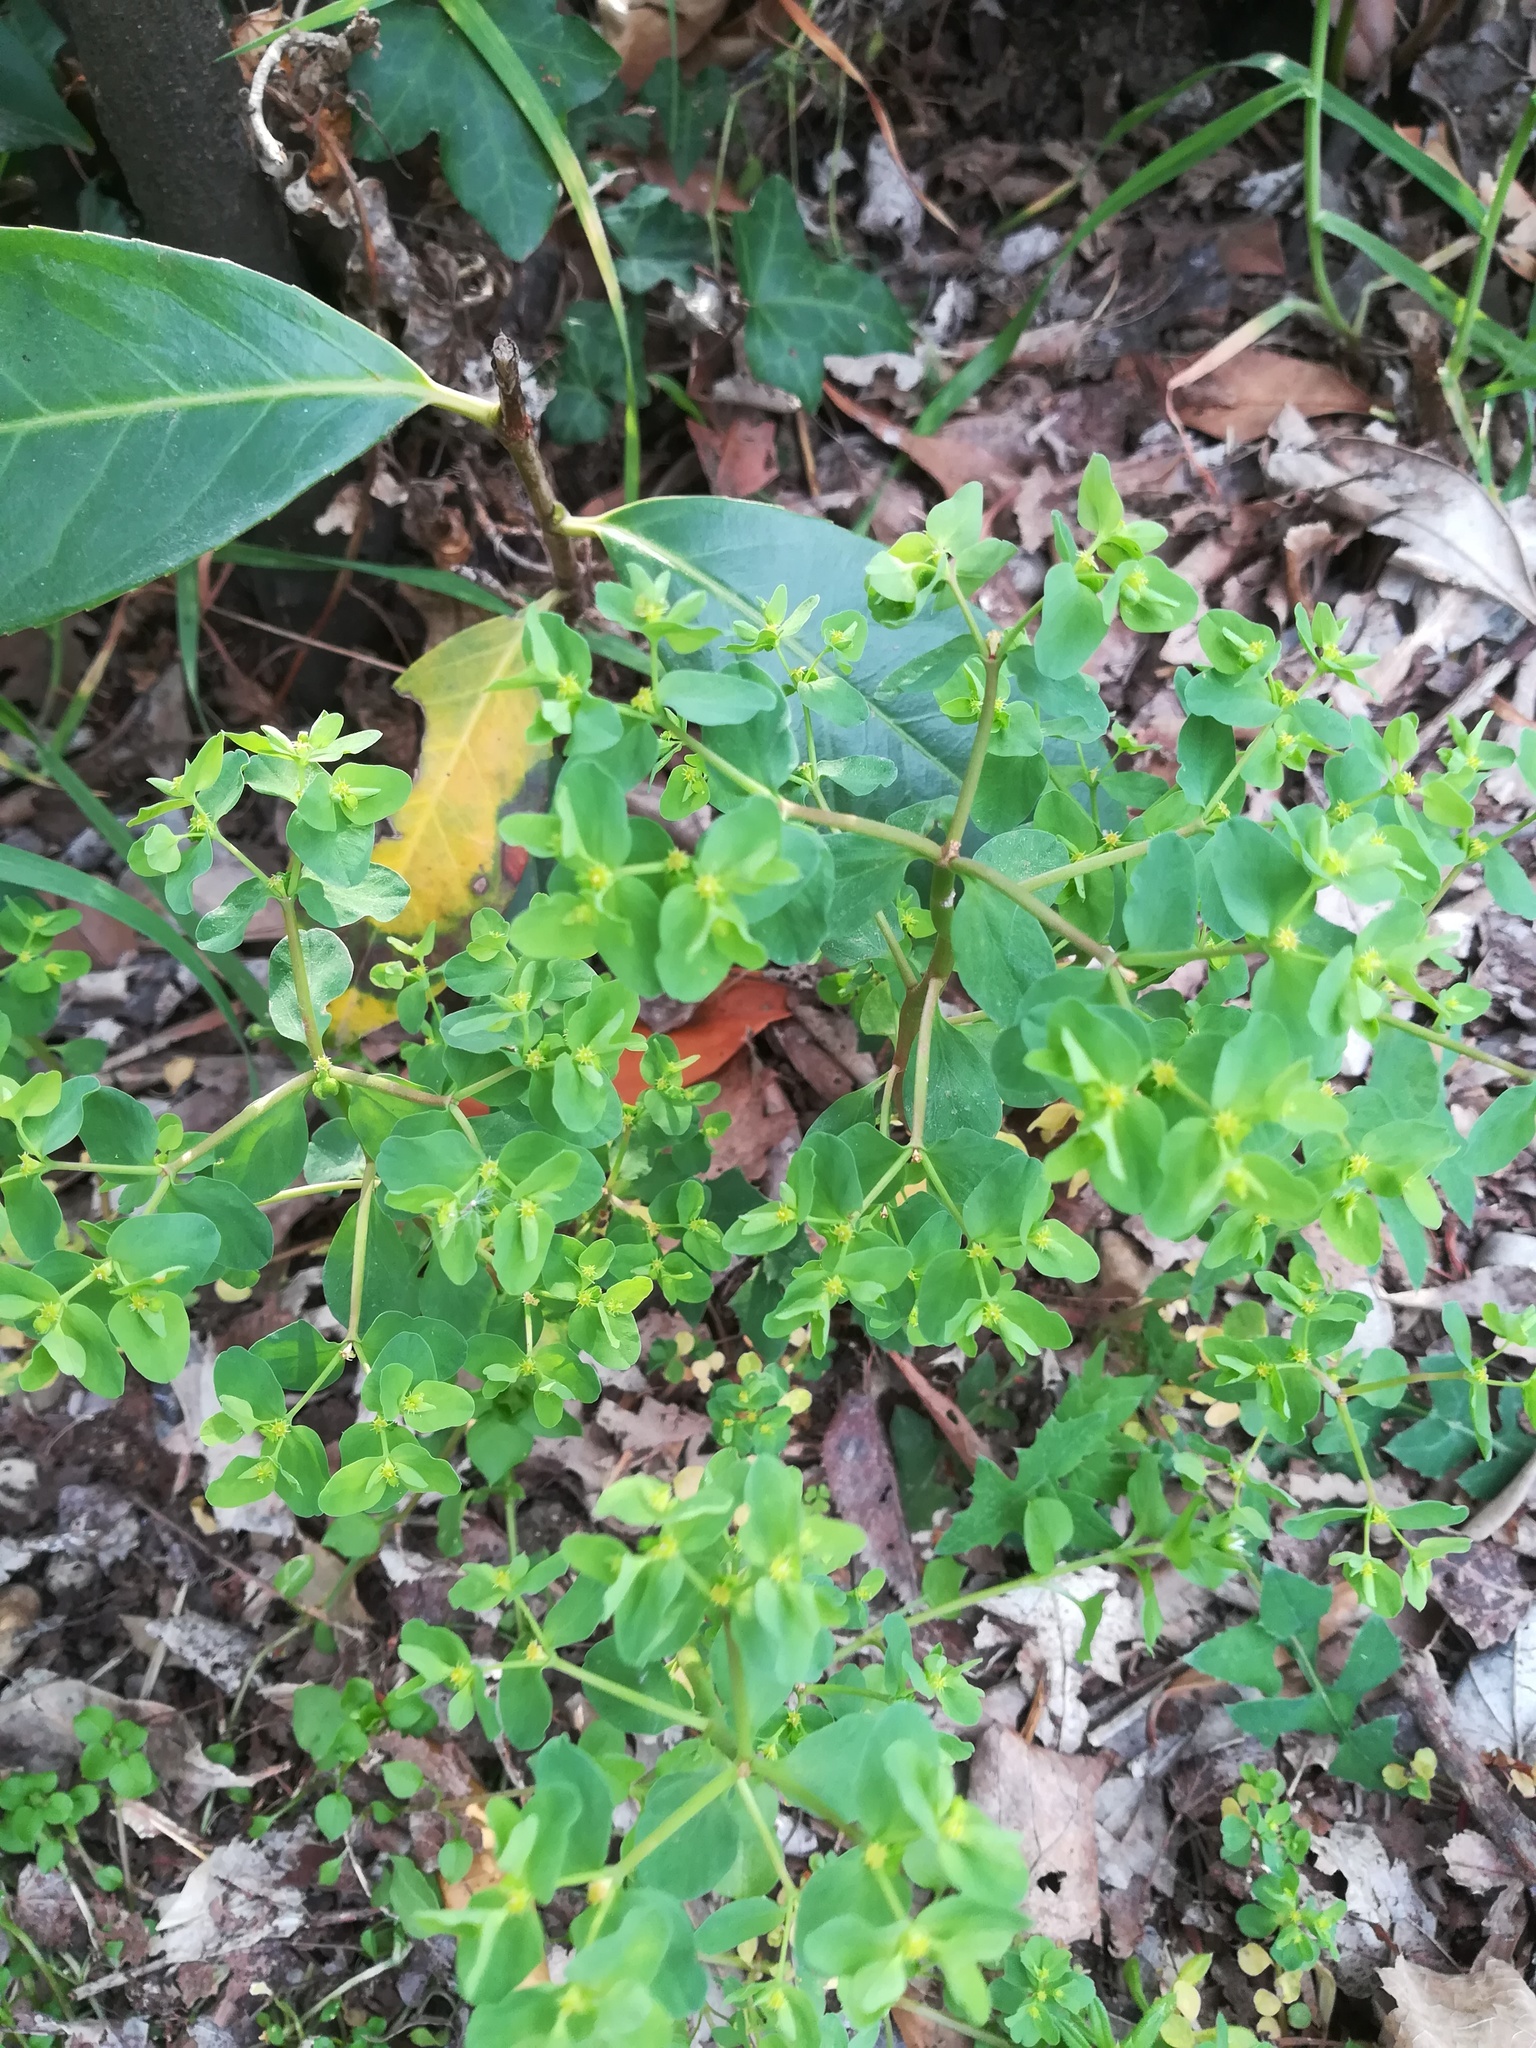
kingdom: Plantae
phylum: Tracheophyta
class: Magnoliopsida
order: Malpighiales
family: Euphorbiaceae
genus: Euphorbia
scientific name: Euphorbia peplus
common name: Petty spurge
